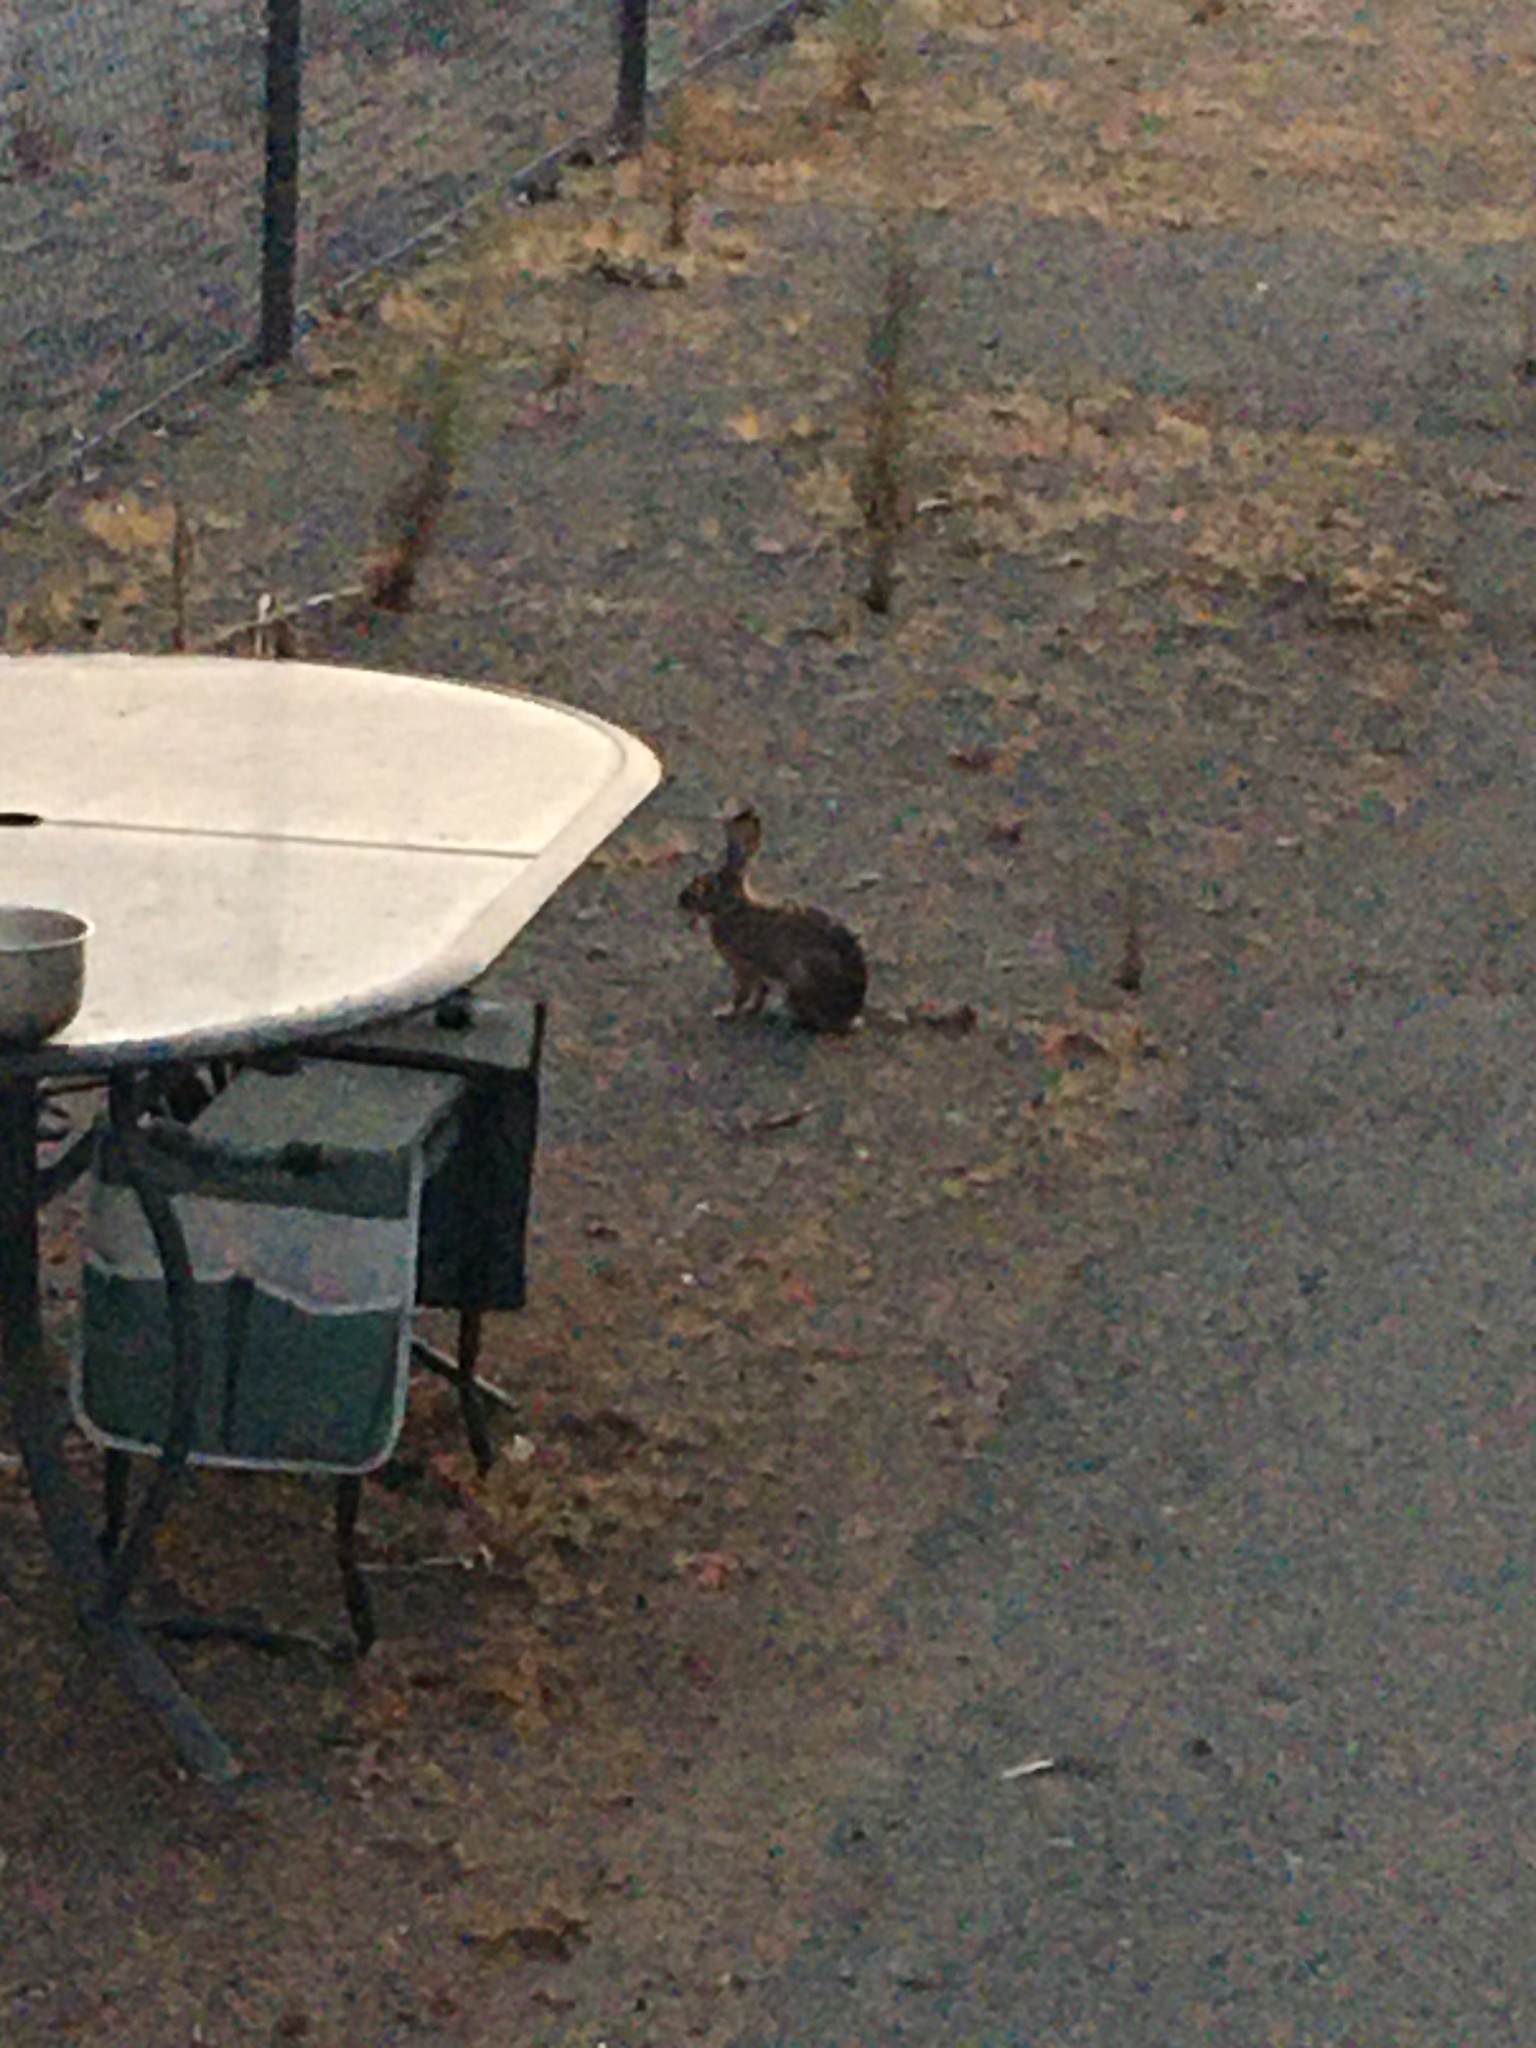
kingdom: Animalia
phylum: Chordata
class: Mammalia
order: Lagomorpha
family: Leporidae
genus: Sylvilagus
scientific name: Sylvilagus audubonii
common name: Desert cottontail
